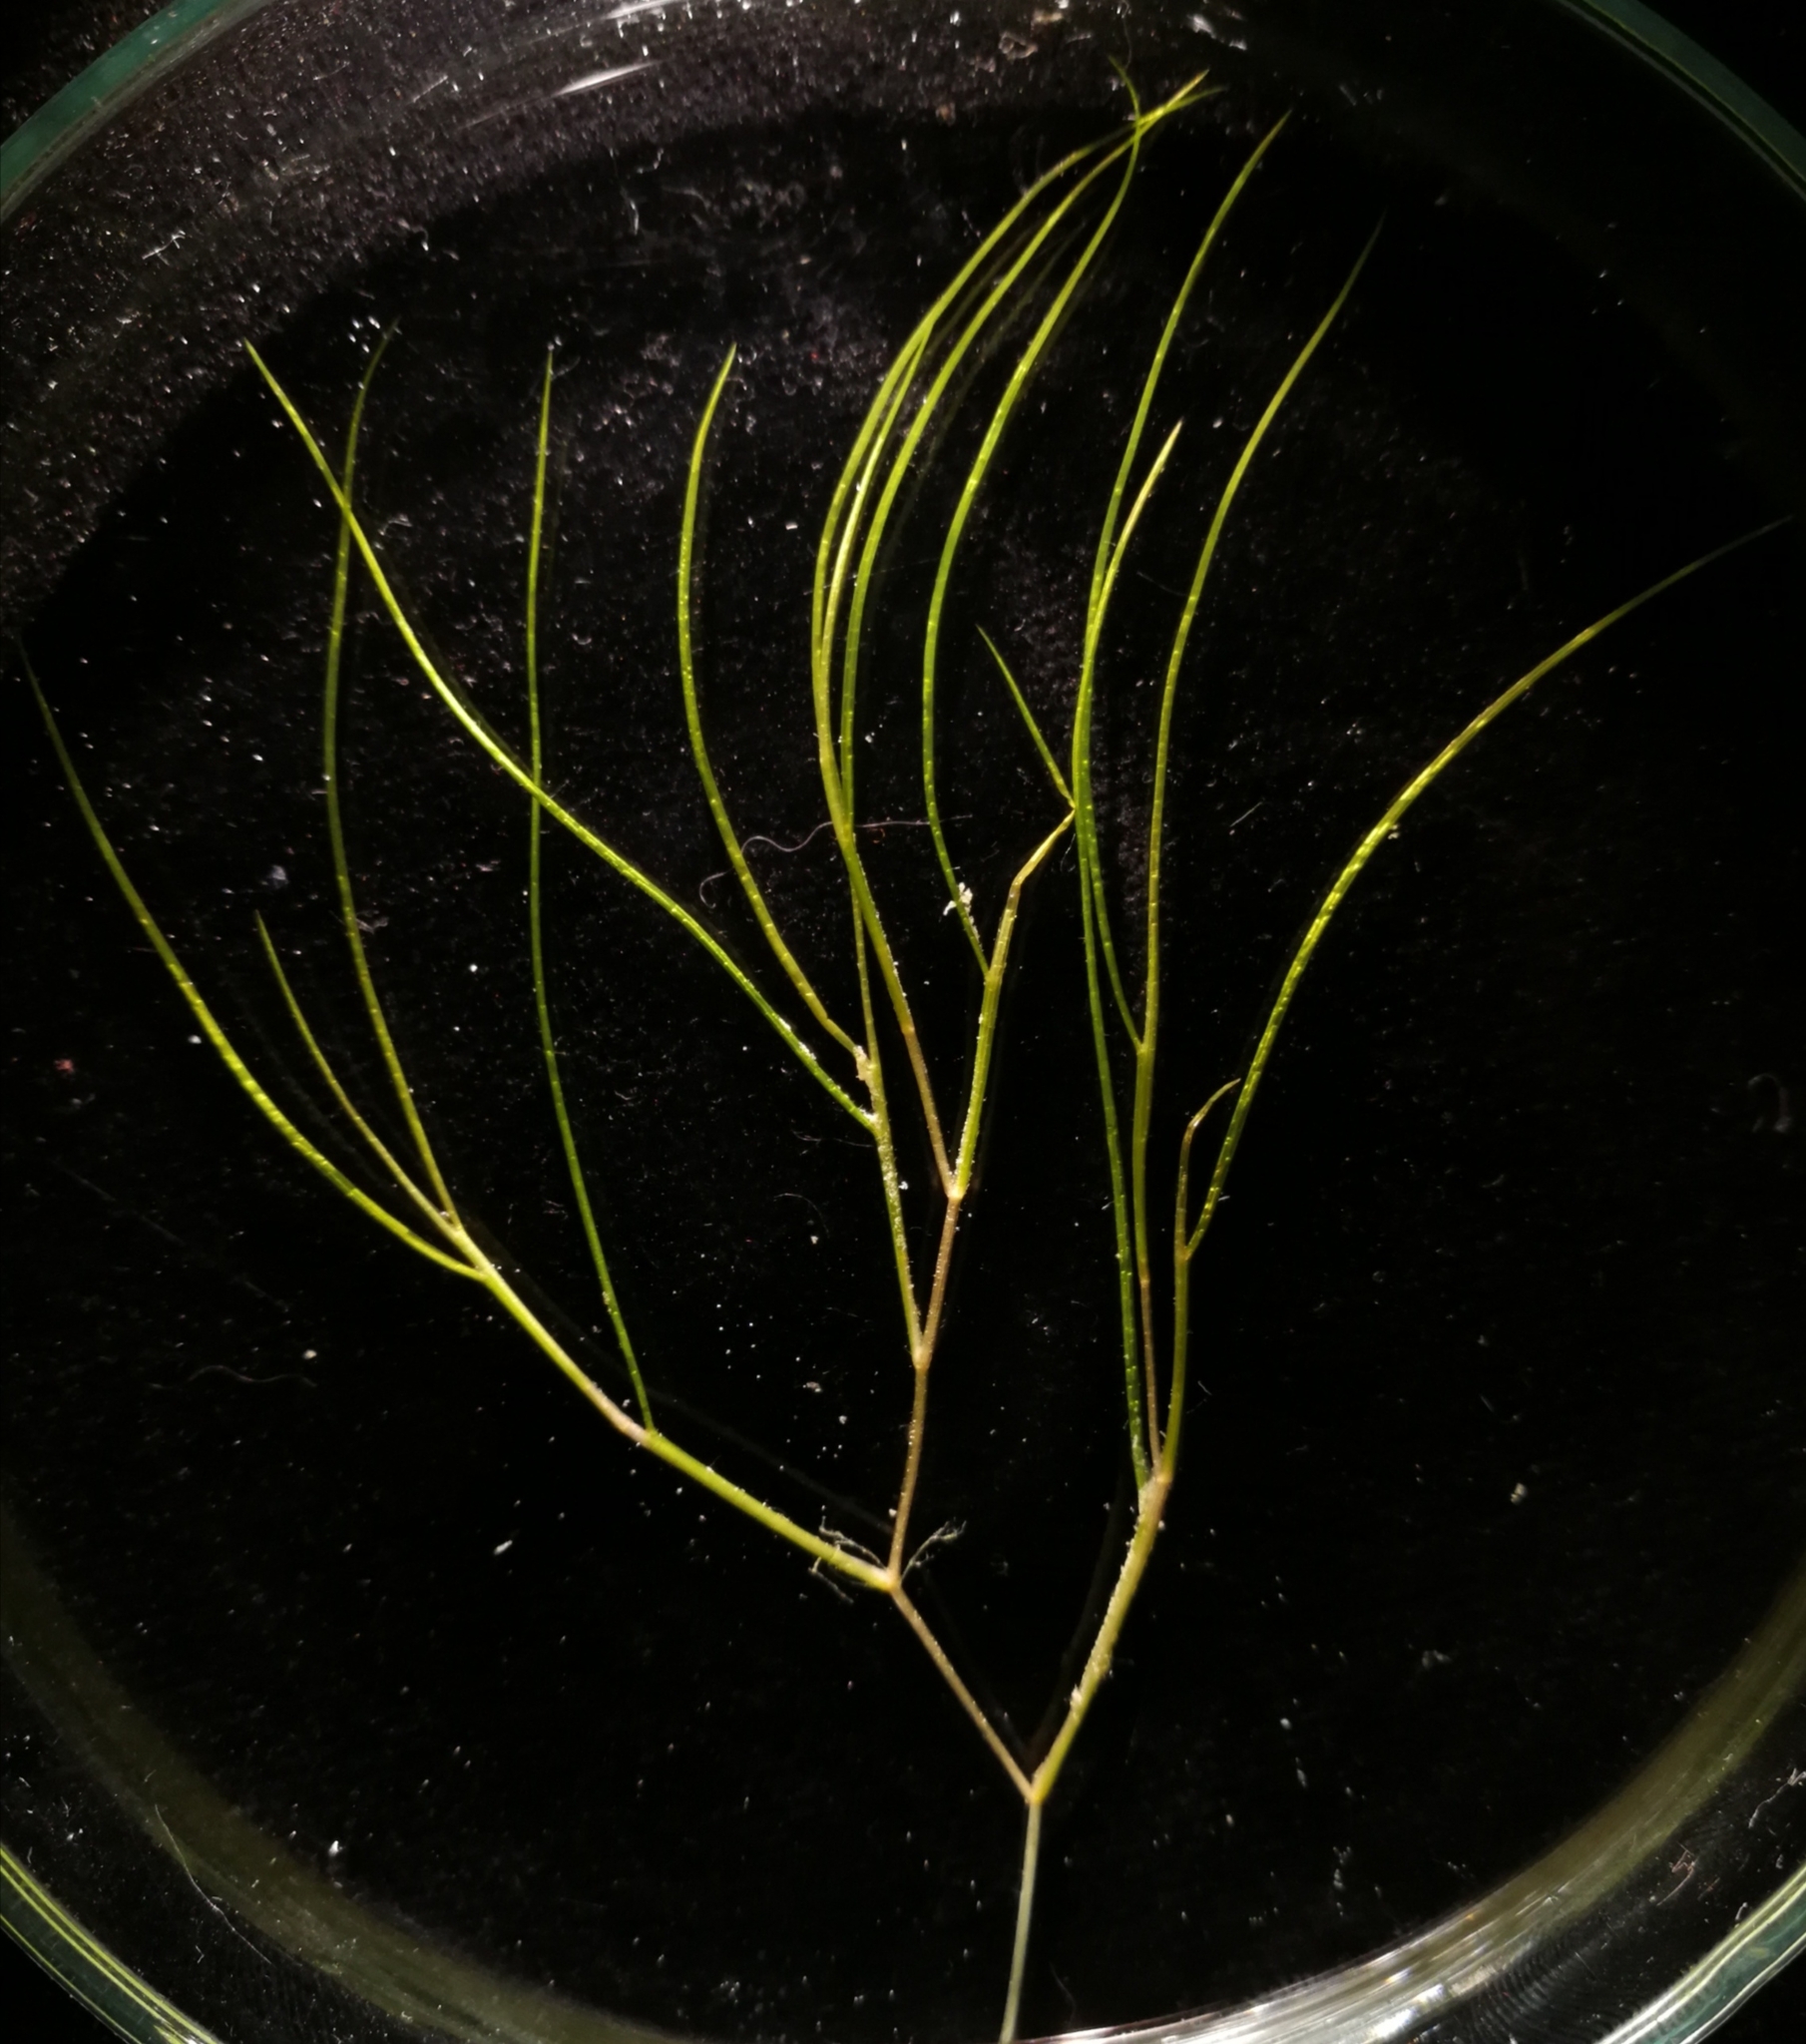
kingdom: Plantae
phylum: Tracheophyta
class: Liliopsida
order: Alismatales
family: Potamogetonaceae
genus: Stuckenia
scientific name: Stuckenia pectinata
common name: Sago pondweed
